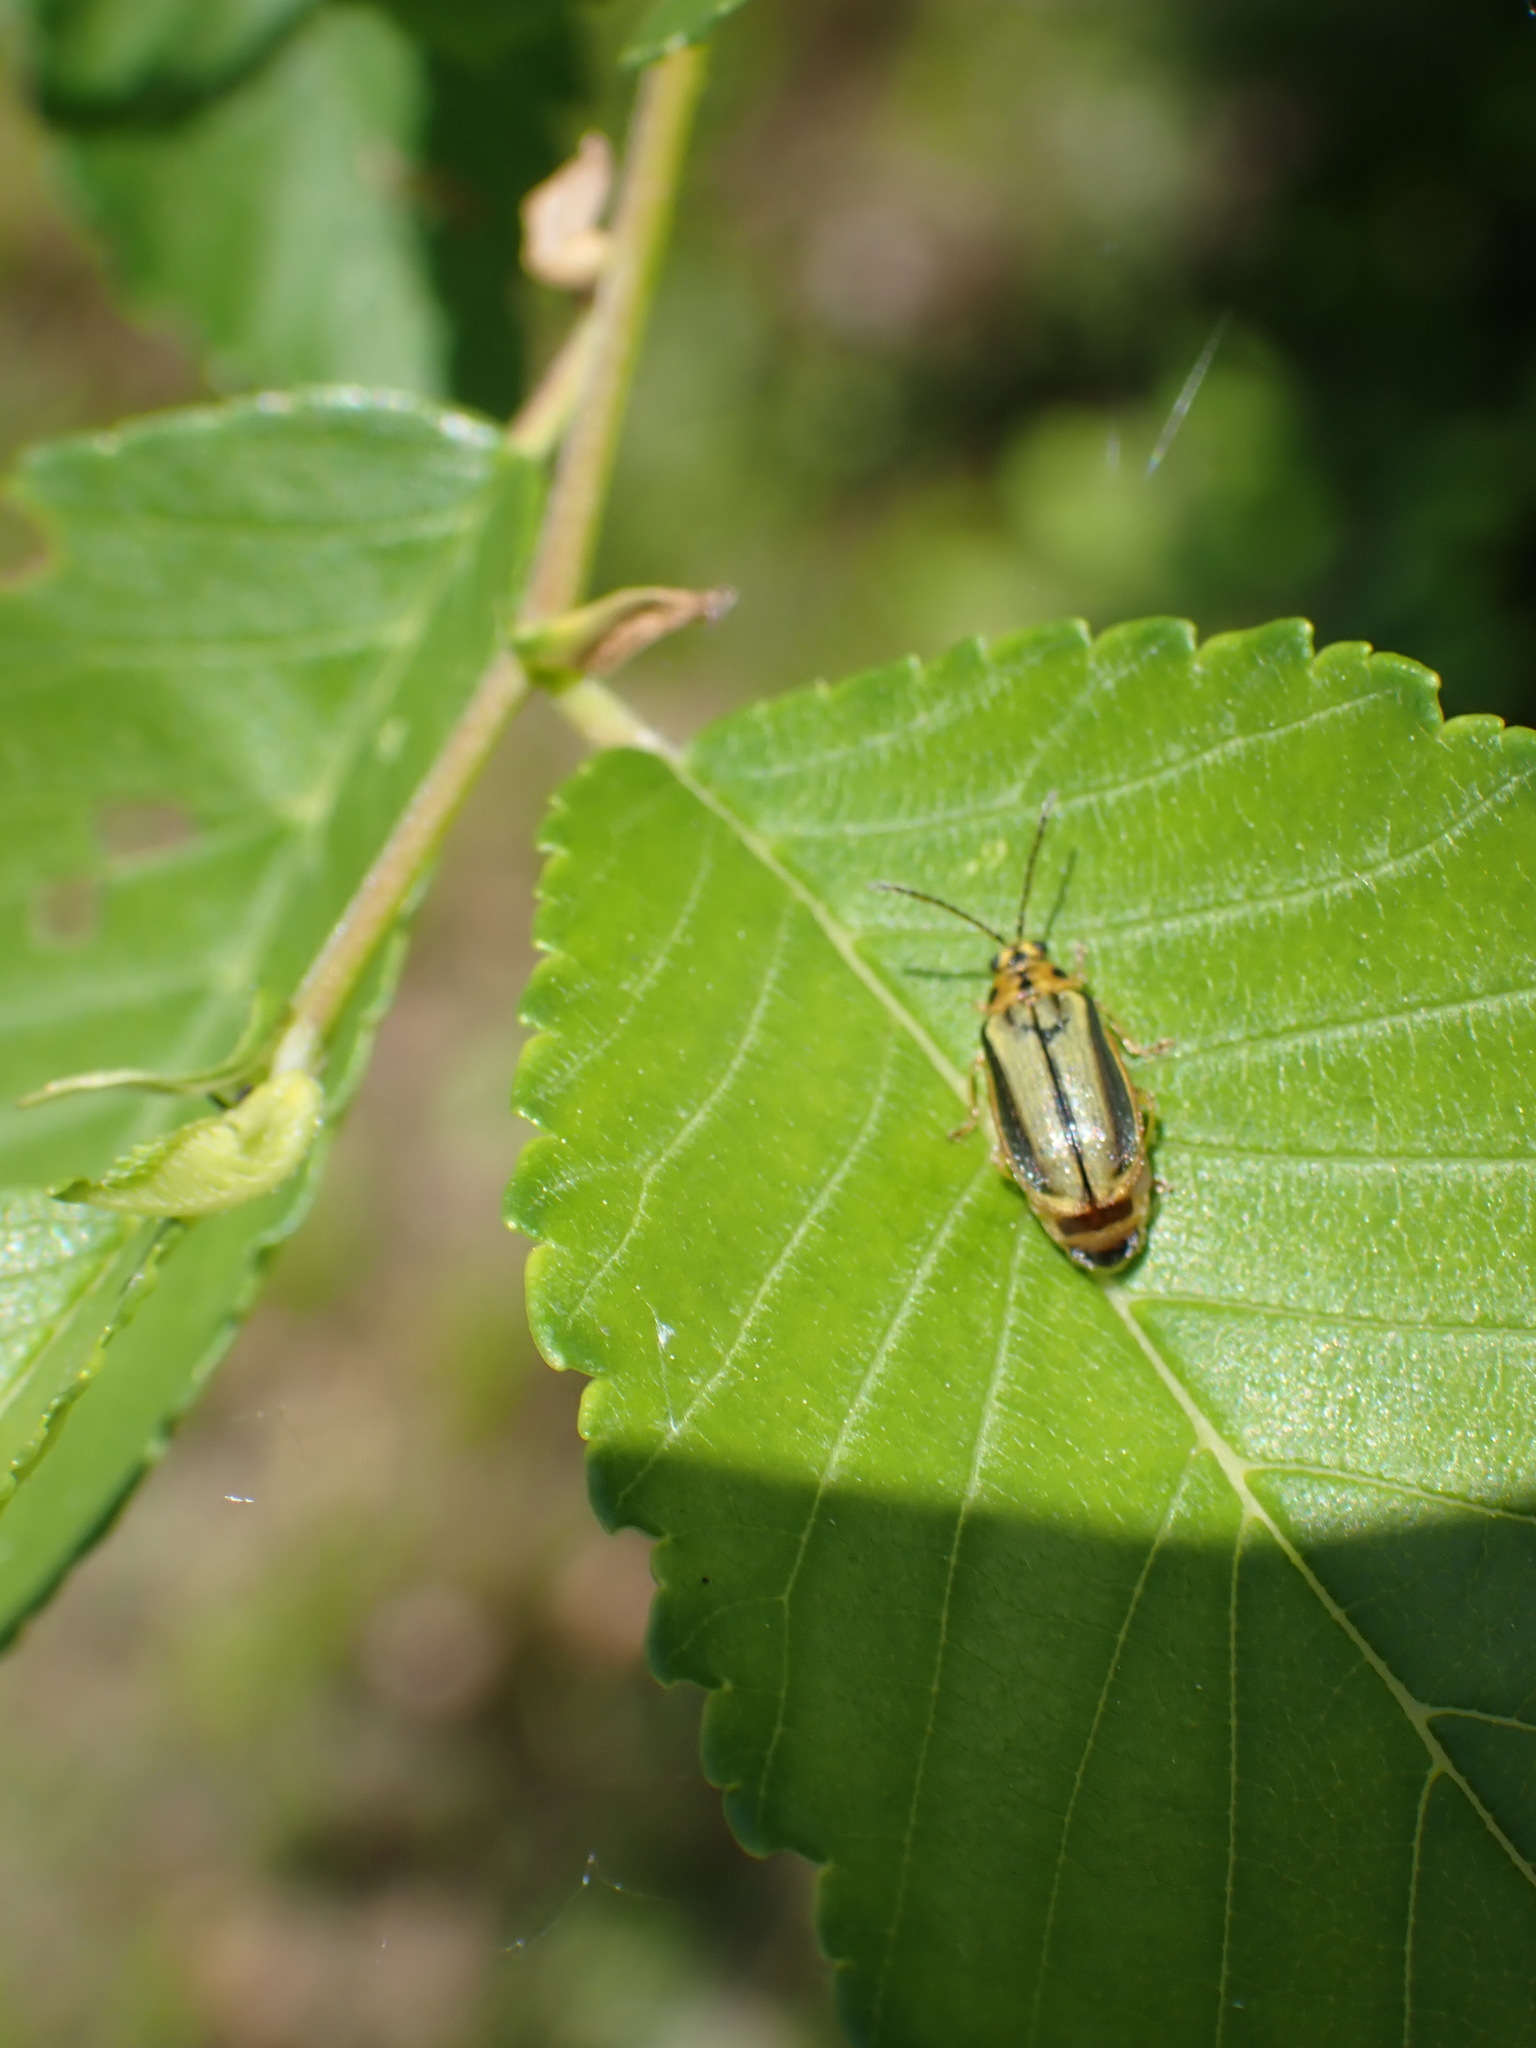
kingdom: Animalia
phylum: Arthropoda
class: Insecta
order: Coleoptera
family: Chrysomelidae
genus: Xanthogaleruca
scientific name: Xanthogaleruca luteola
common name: Elm leaf beetle
